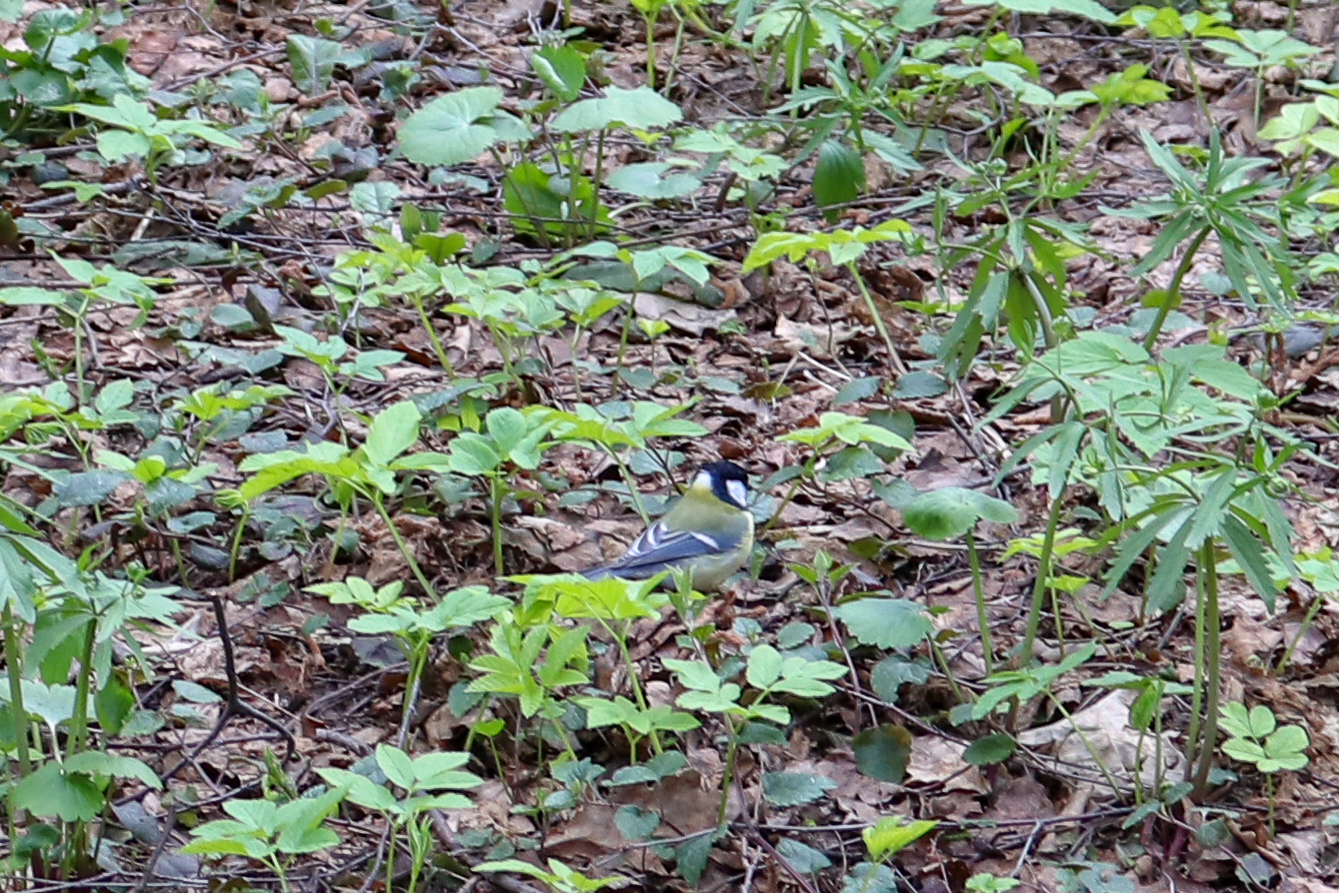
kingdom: Animalia
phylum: Chordata
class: Aves
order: Passeriformes
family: Paridae
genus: Parus
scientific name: Parus major
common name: Great tit
